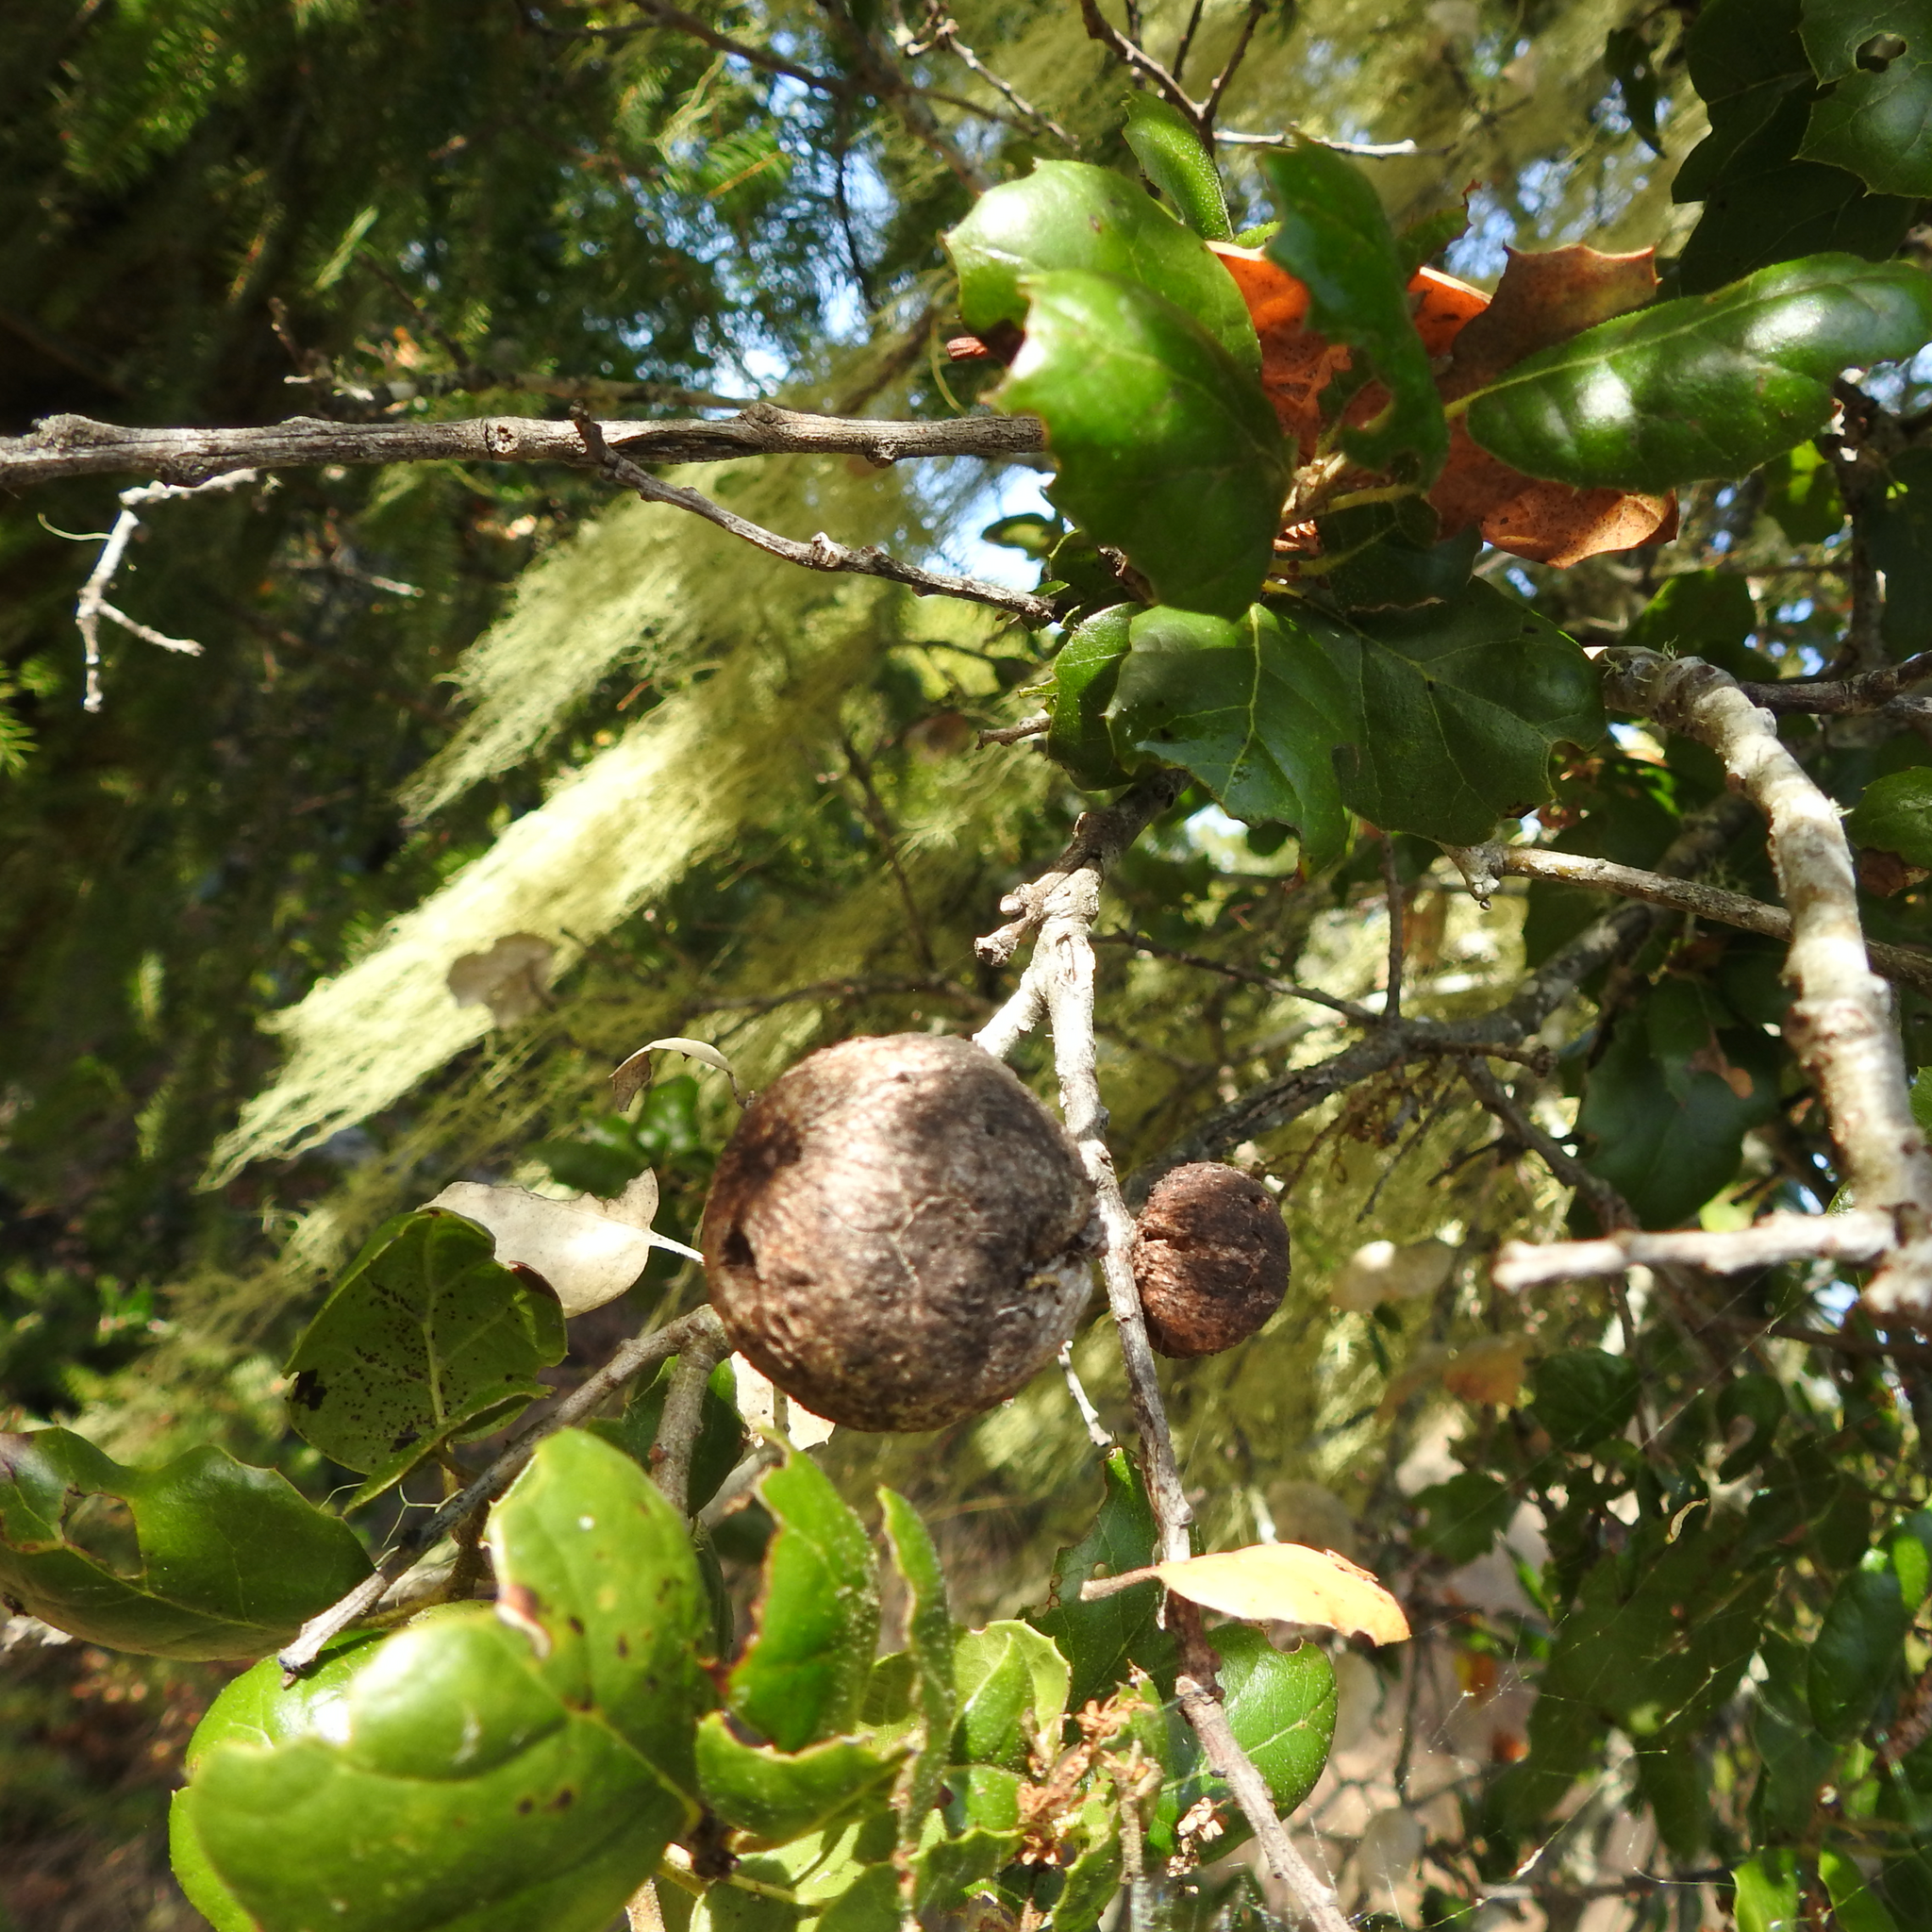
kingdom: Animalia
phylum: Arthropoda
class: Insecta
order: Hymenoptera
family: Cynipidae
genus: Amphibolips
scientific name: Amphibolips quercuspomiformis
